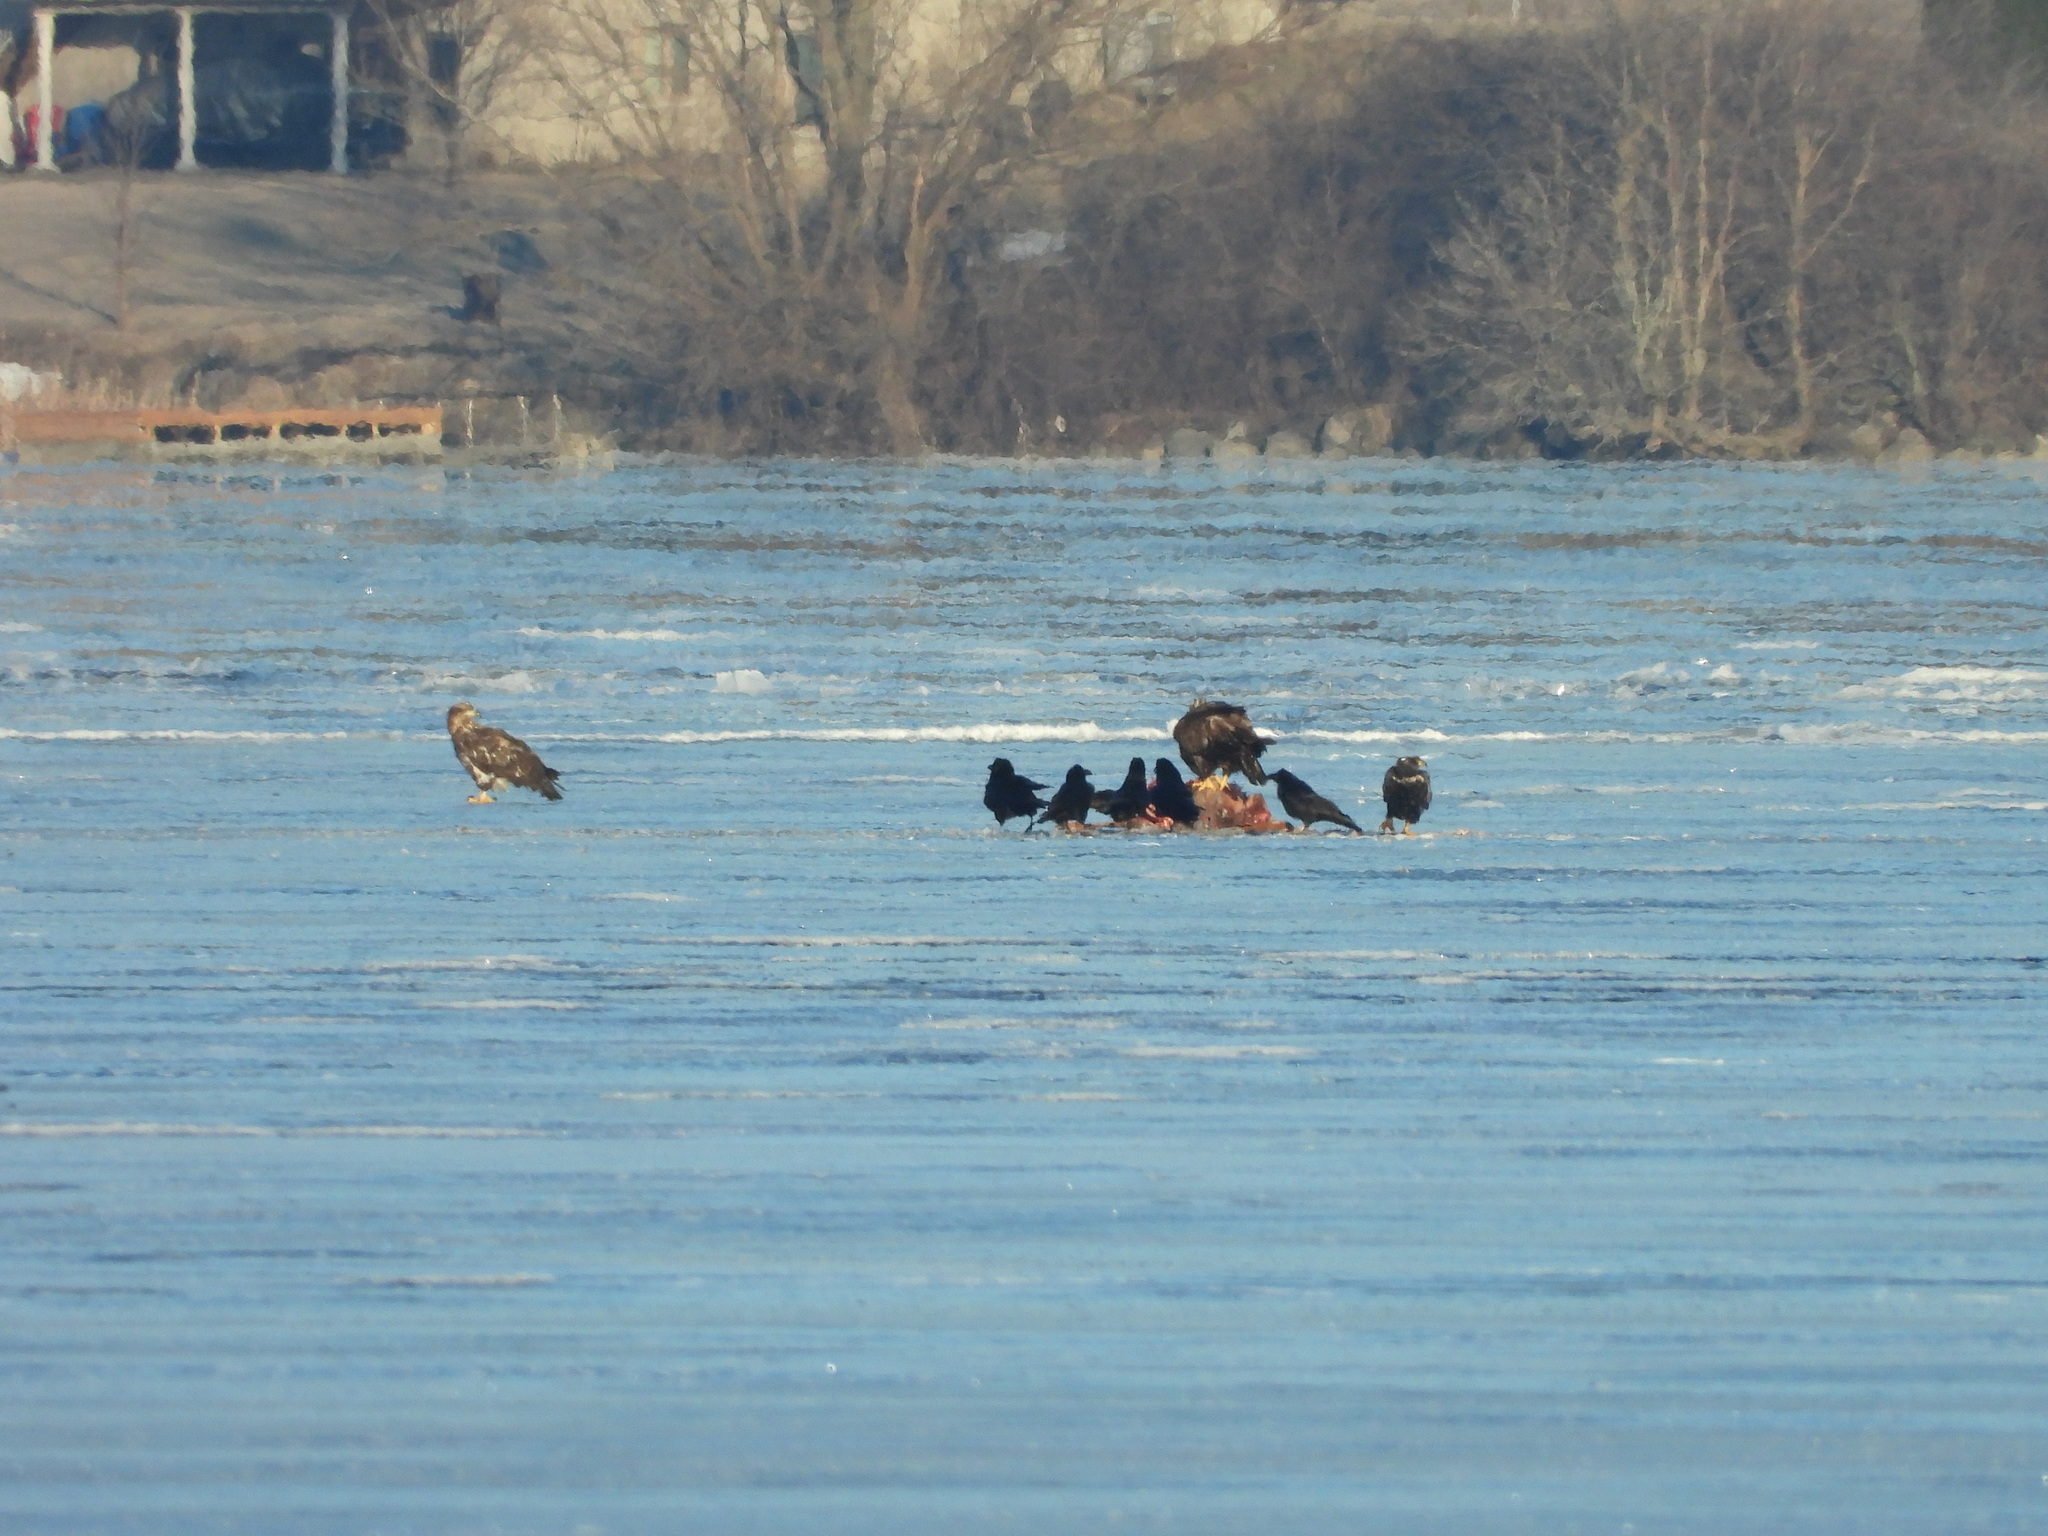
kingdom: Animalia
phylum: Chordata
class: Aves
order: Accipitriformes
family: Accipitridae
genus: Haliaeetus
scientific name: Haliaeetus leucocephalus
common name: Bald eagle
